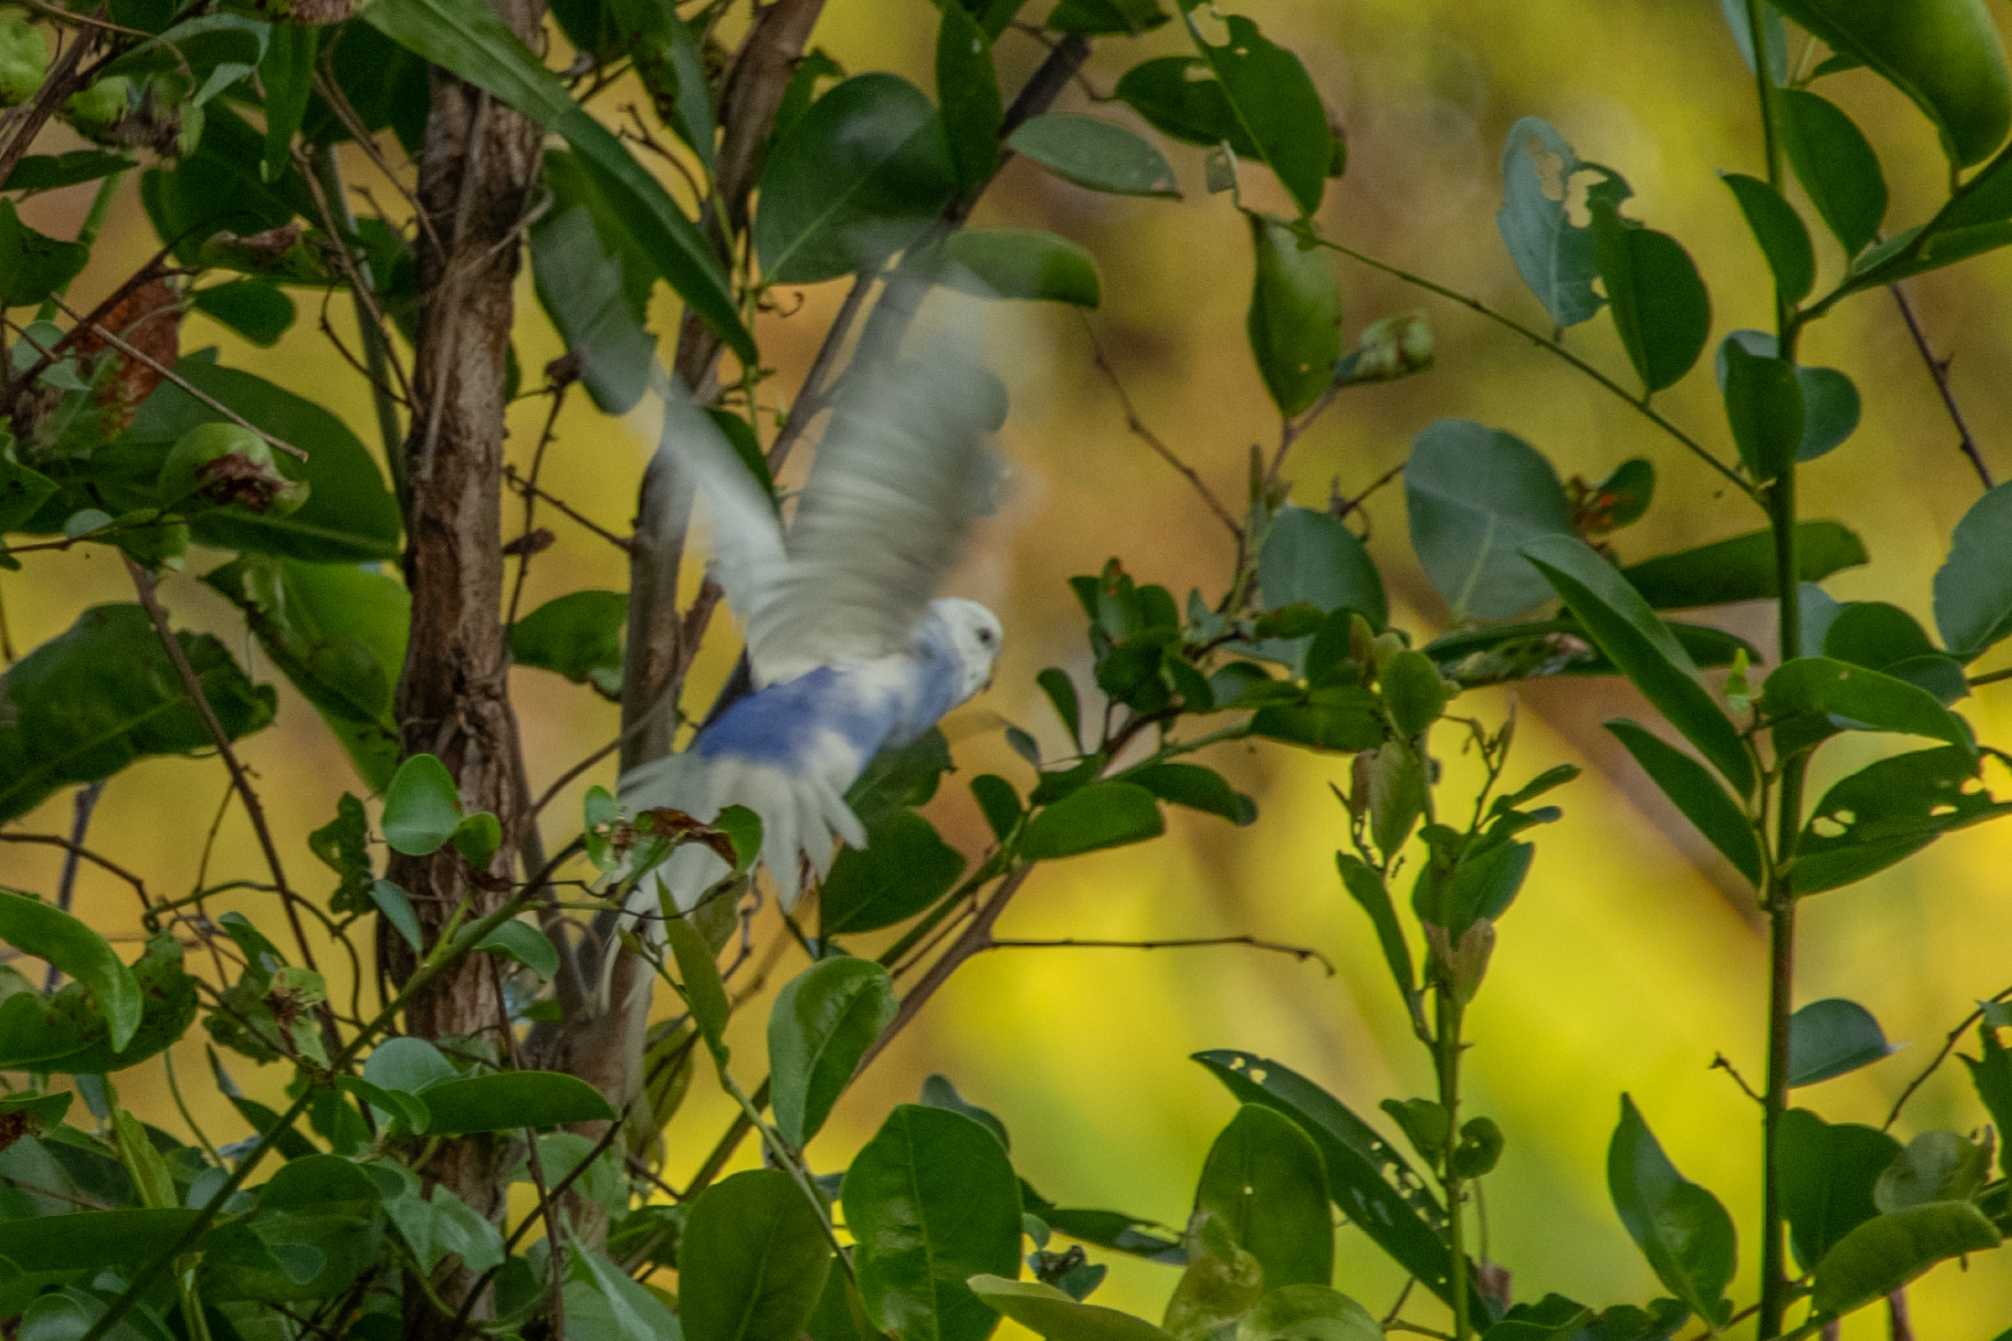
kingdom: Animalia
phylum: Chordata
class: Aves
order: Psittaciformes
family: Psittacidae
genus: Melopsittacus
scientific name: Melopsittacus undulatus
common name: Budgerigar
